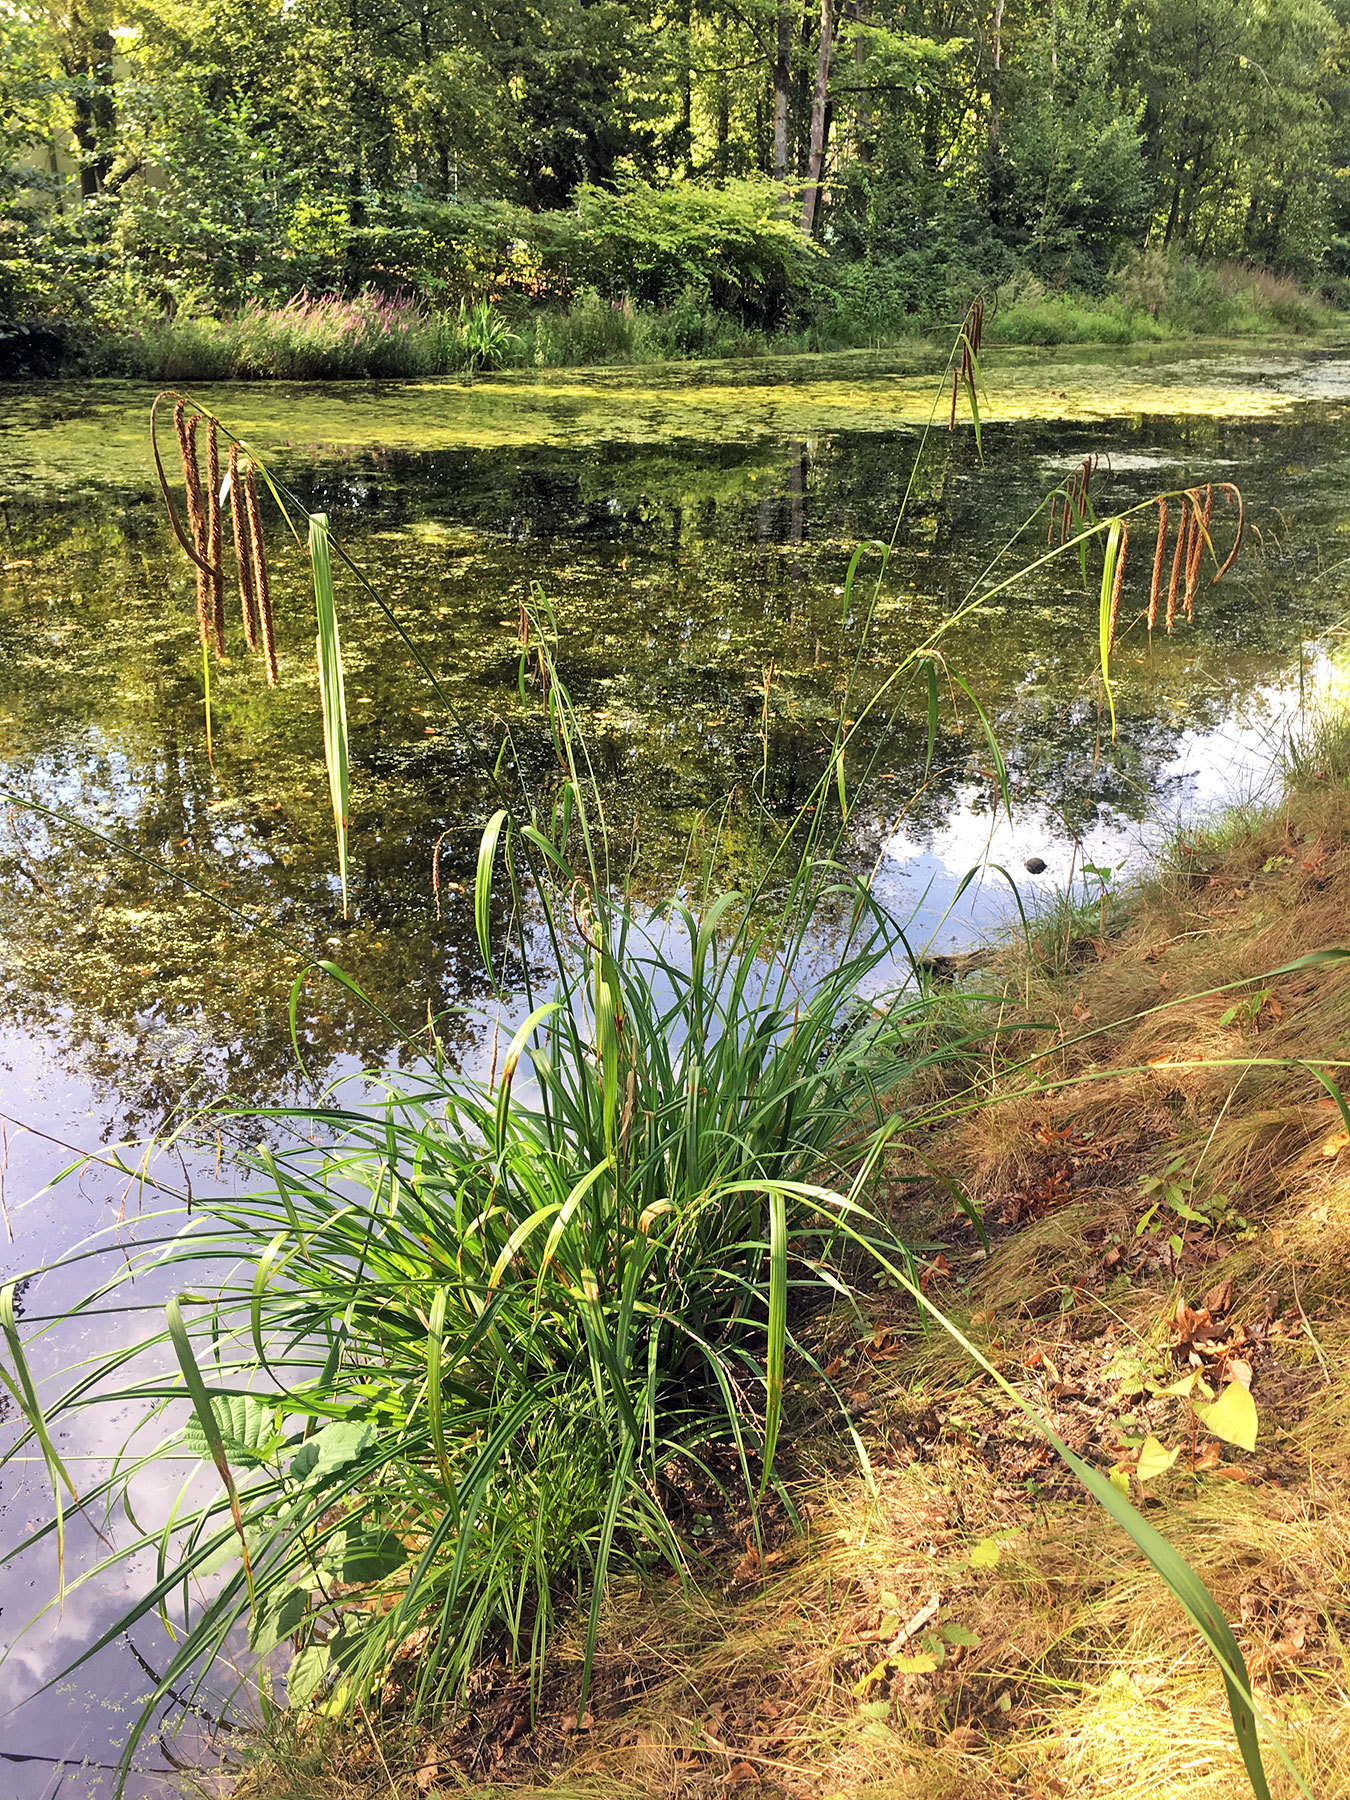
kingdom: Plantae
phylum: Tracheophyta
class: Liliopsida
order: Poales
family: Cyperaceae
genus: Carex
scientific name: Carex pendula
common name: Pendulous sedge
